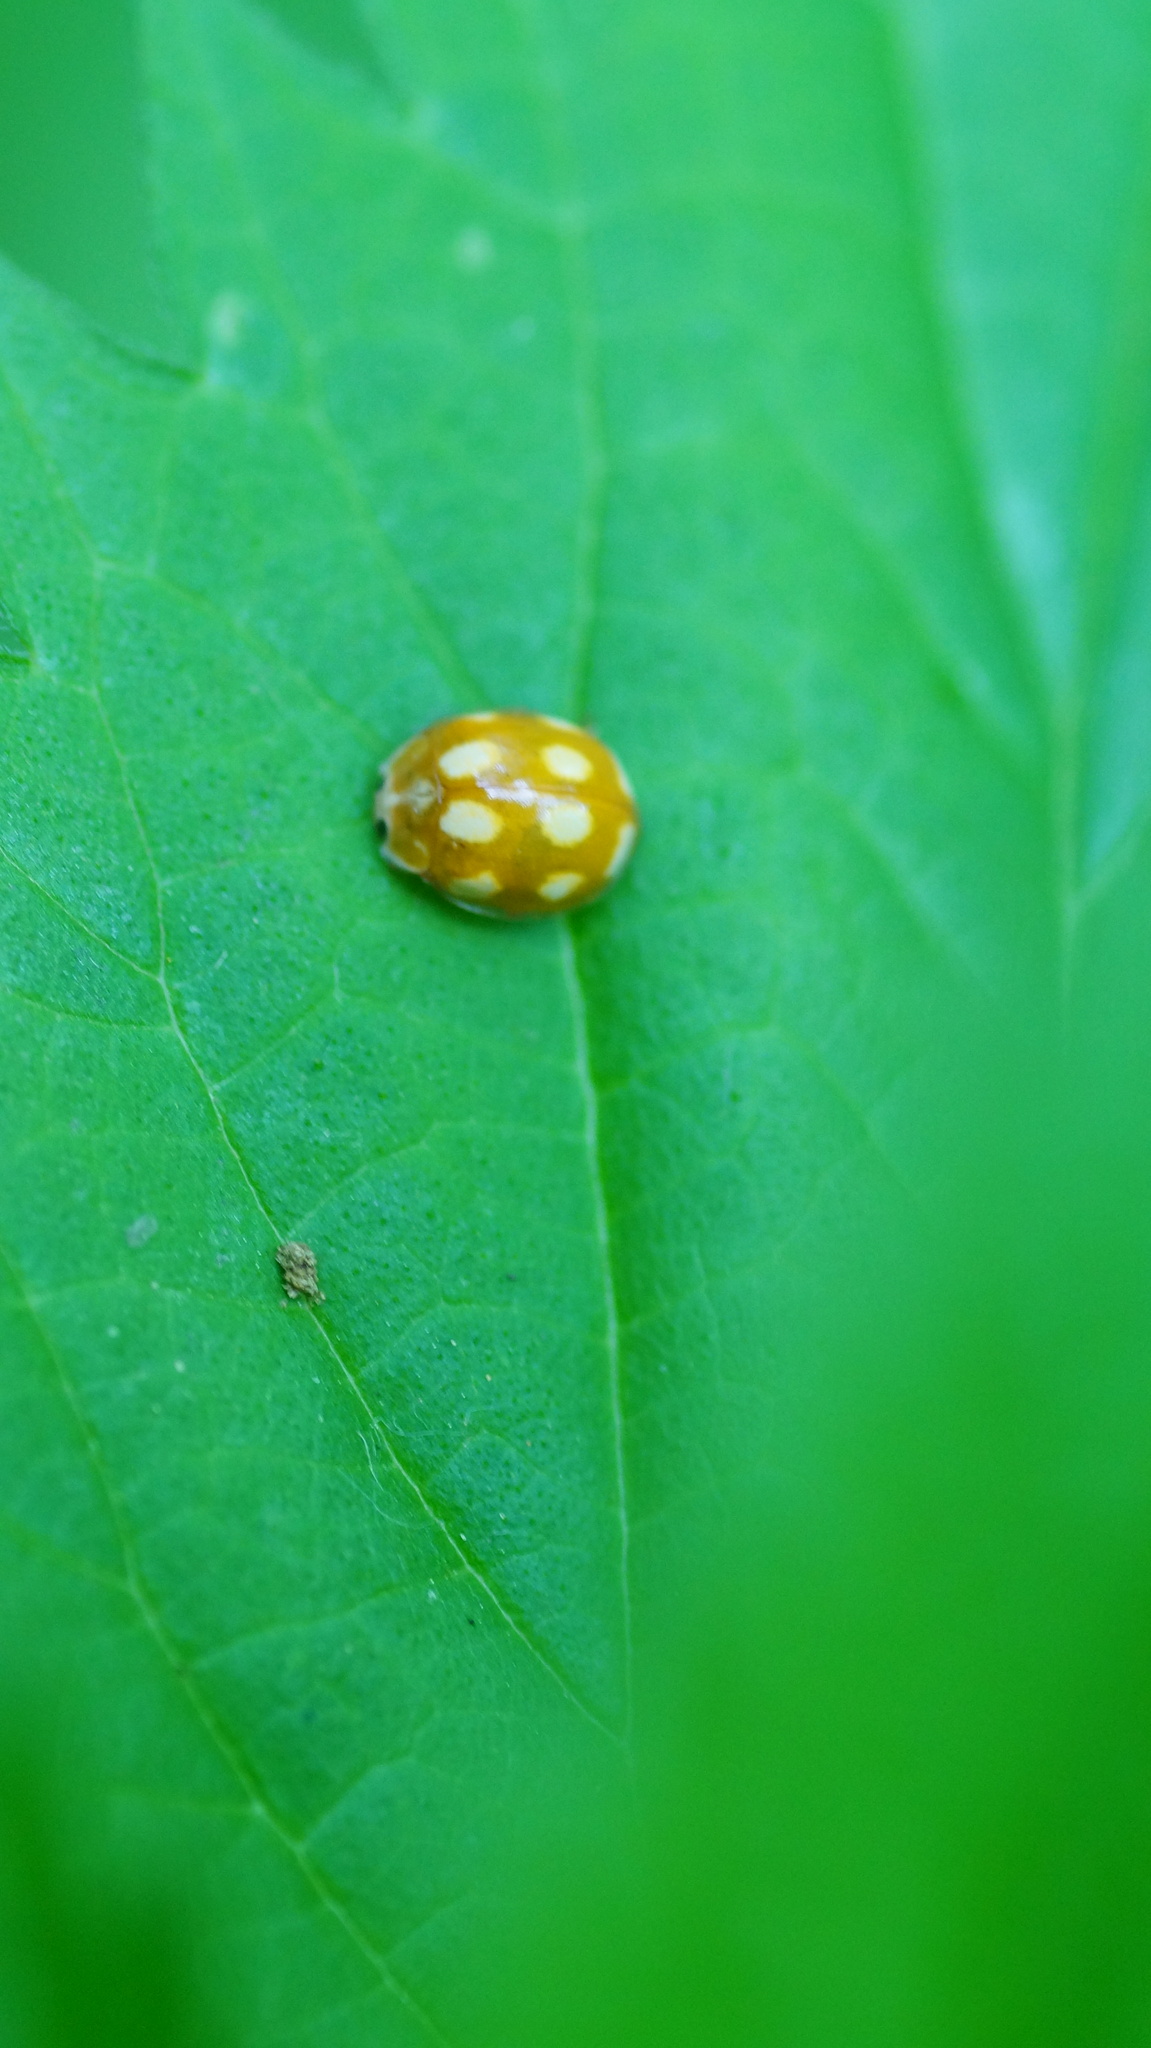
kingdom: Animalia
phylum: Arthropoda
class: Insecta
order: Coleoptera
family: Coccinellidae
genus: Calvia
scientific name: Calvia decemguttata
